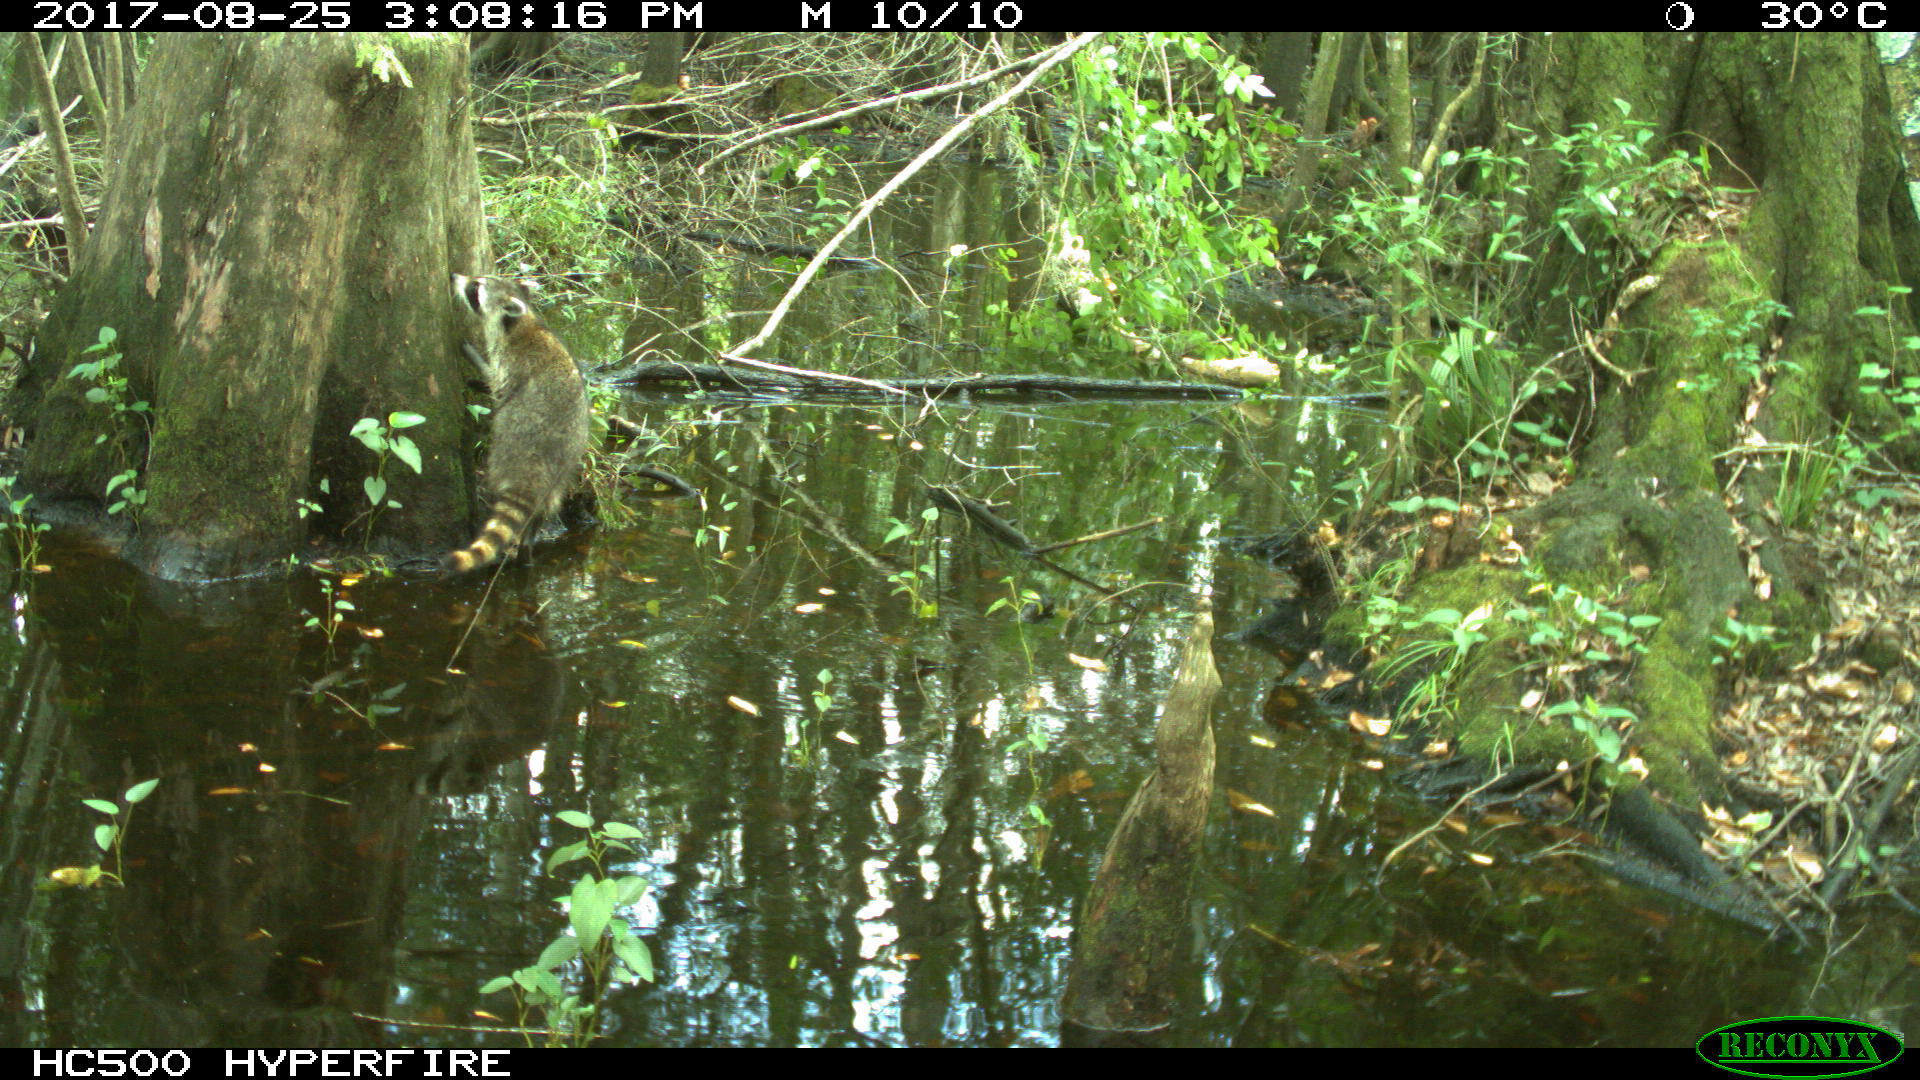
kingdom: Animalia
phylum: Chordata
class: Mammalia
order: Carnivora
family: Procyonidae
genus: Procyon
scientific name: Procyon lotor
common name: Raccoon
